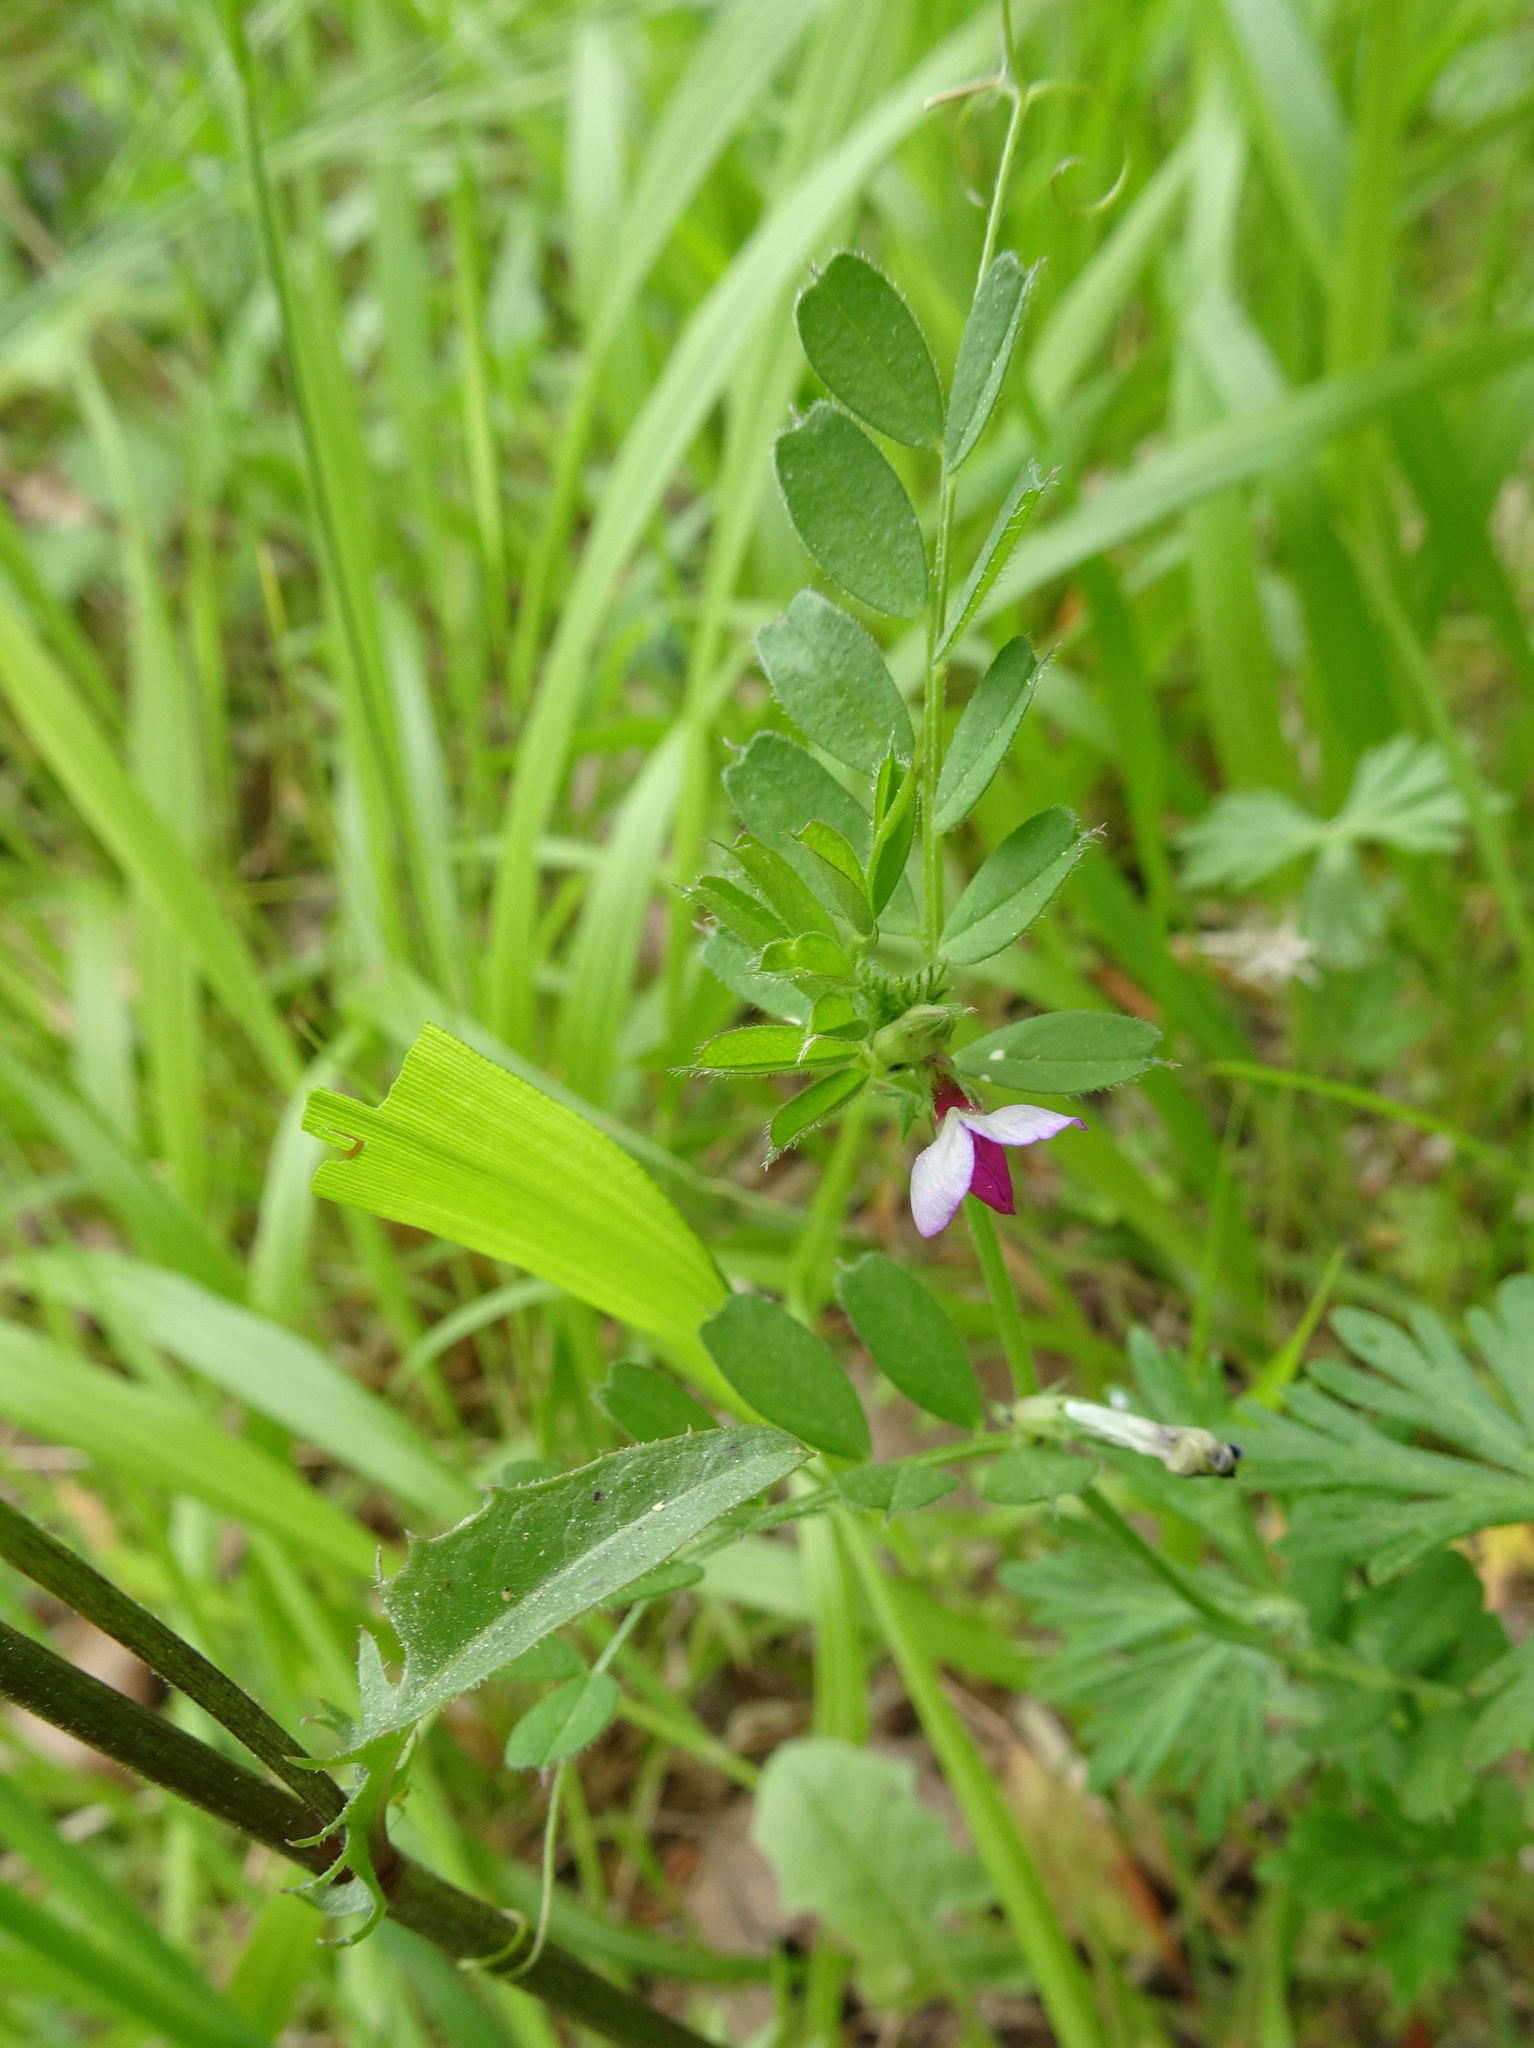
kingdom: Plantae
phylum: Tracheophyta
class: Magnoliopsida
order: Fabales
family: Fabaceae
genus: Vicia
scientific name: Vicia sativa
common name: Garden vetch
